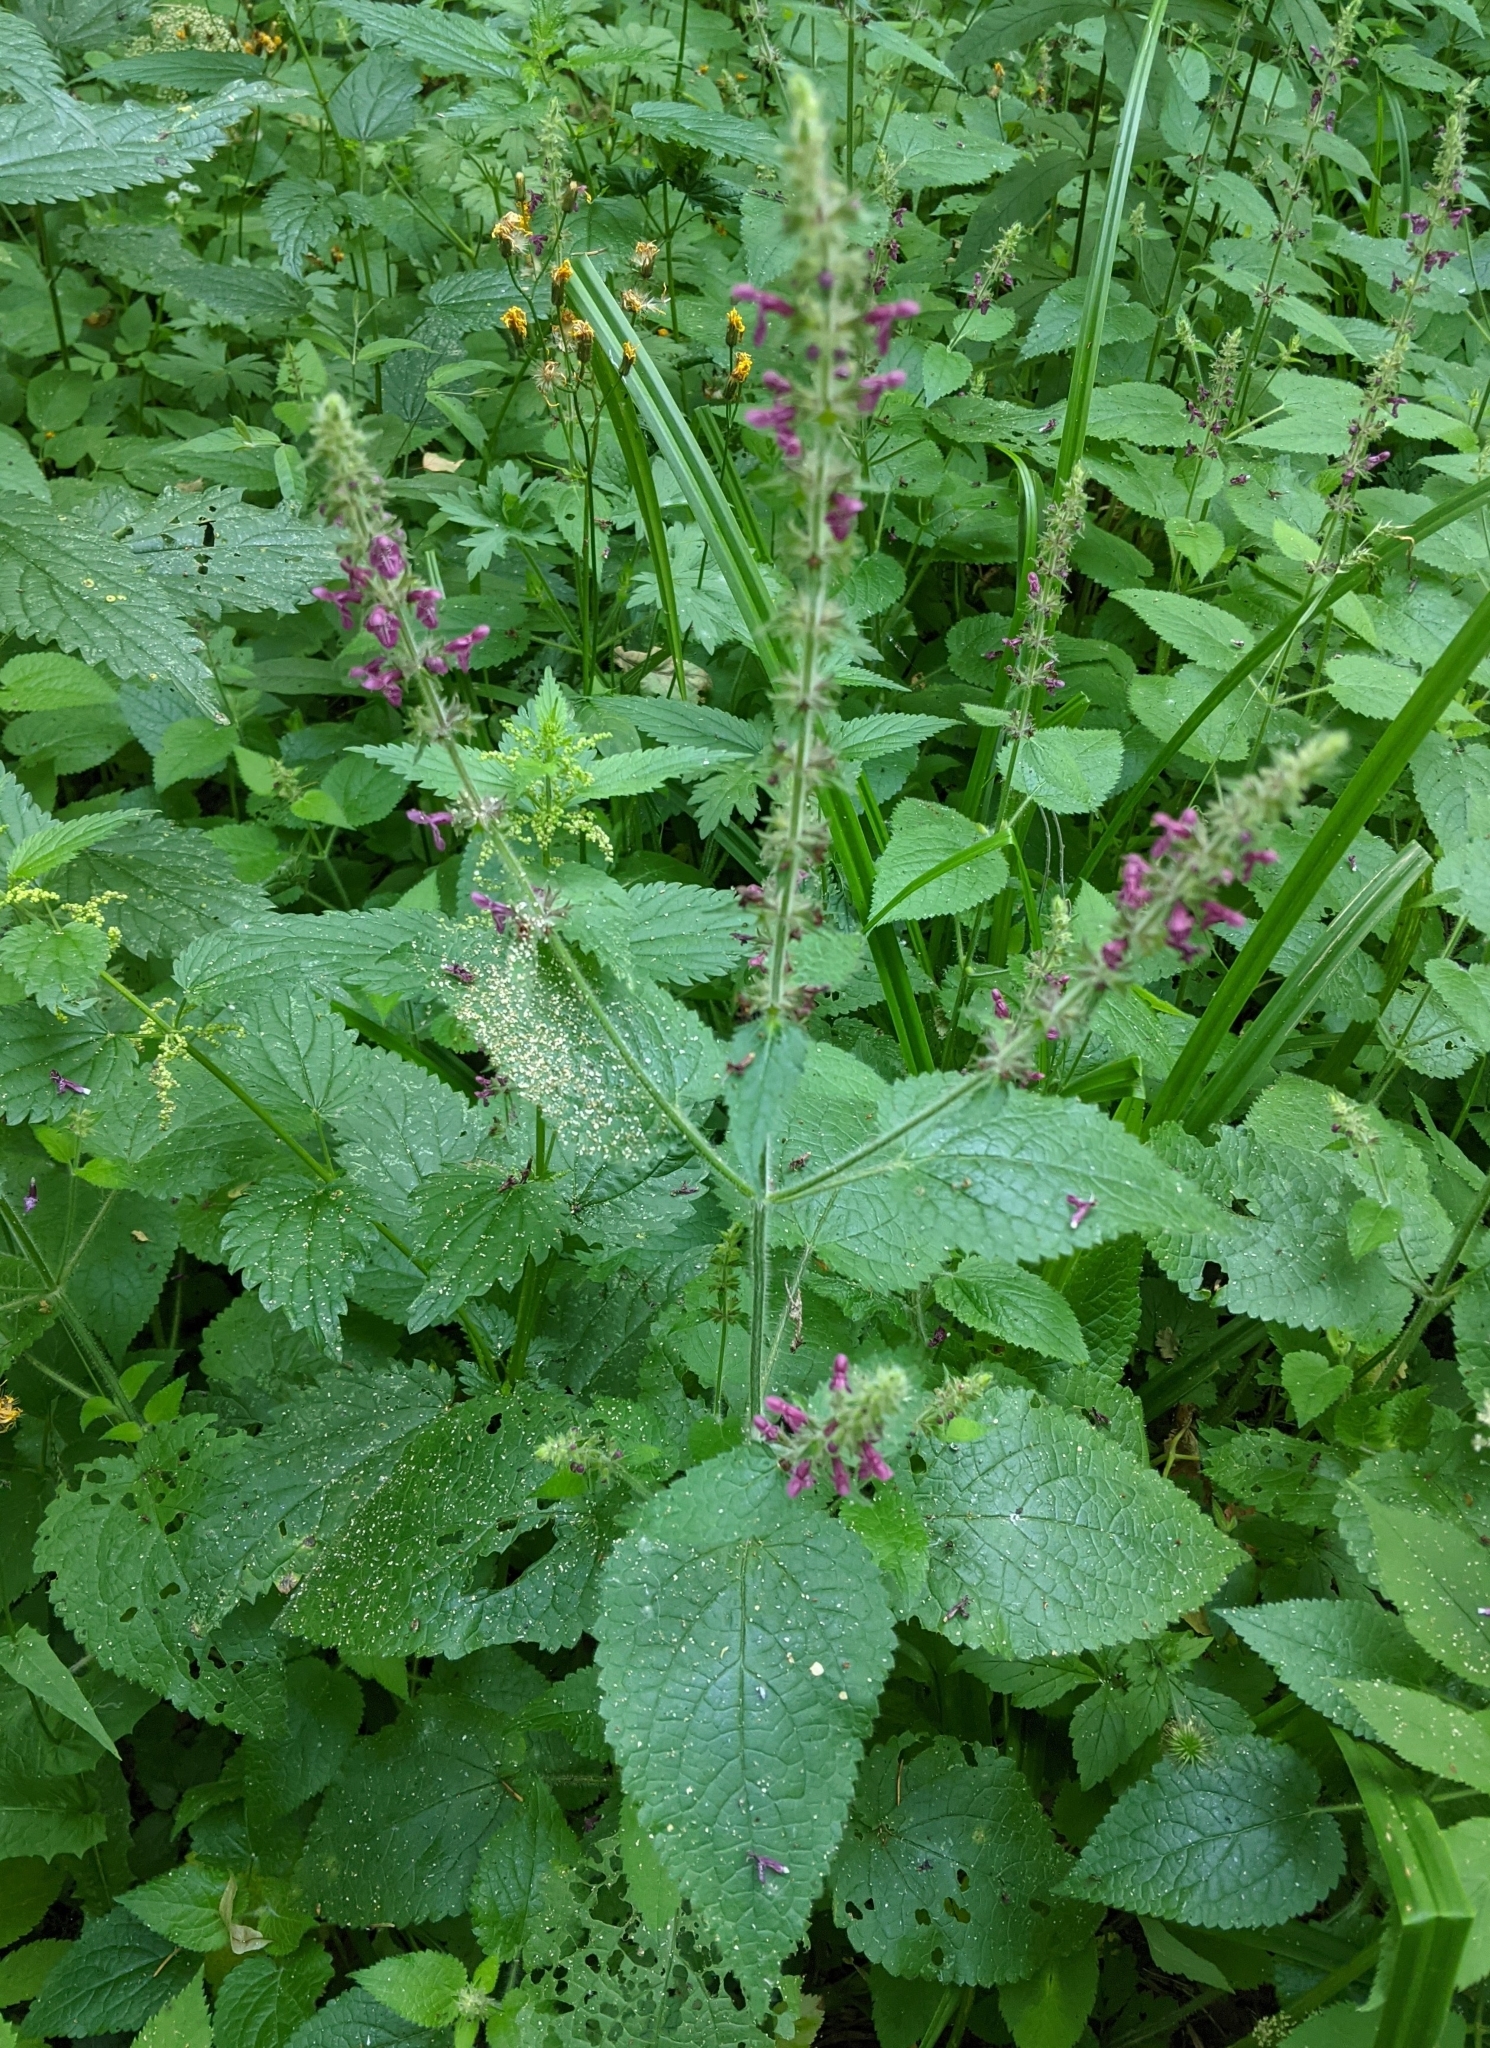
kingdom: Plantae
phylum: Tracheophyta
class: Magnoliopsida
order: Lamiales
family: Lamiaceae
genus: Stachys
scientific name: Stachys sylvatica
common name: Hedge woundwort
